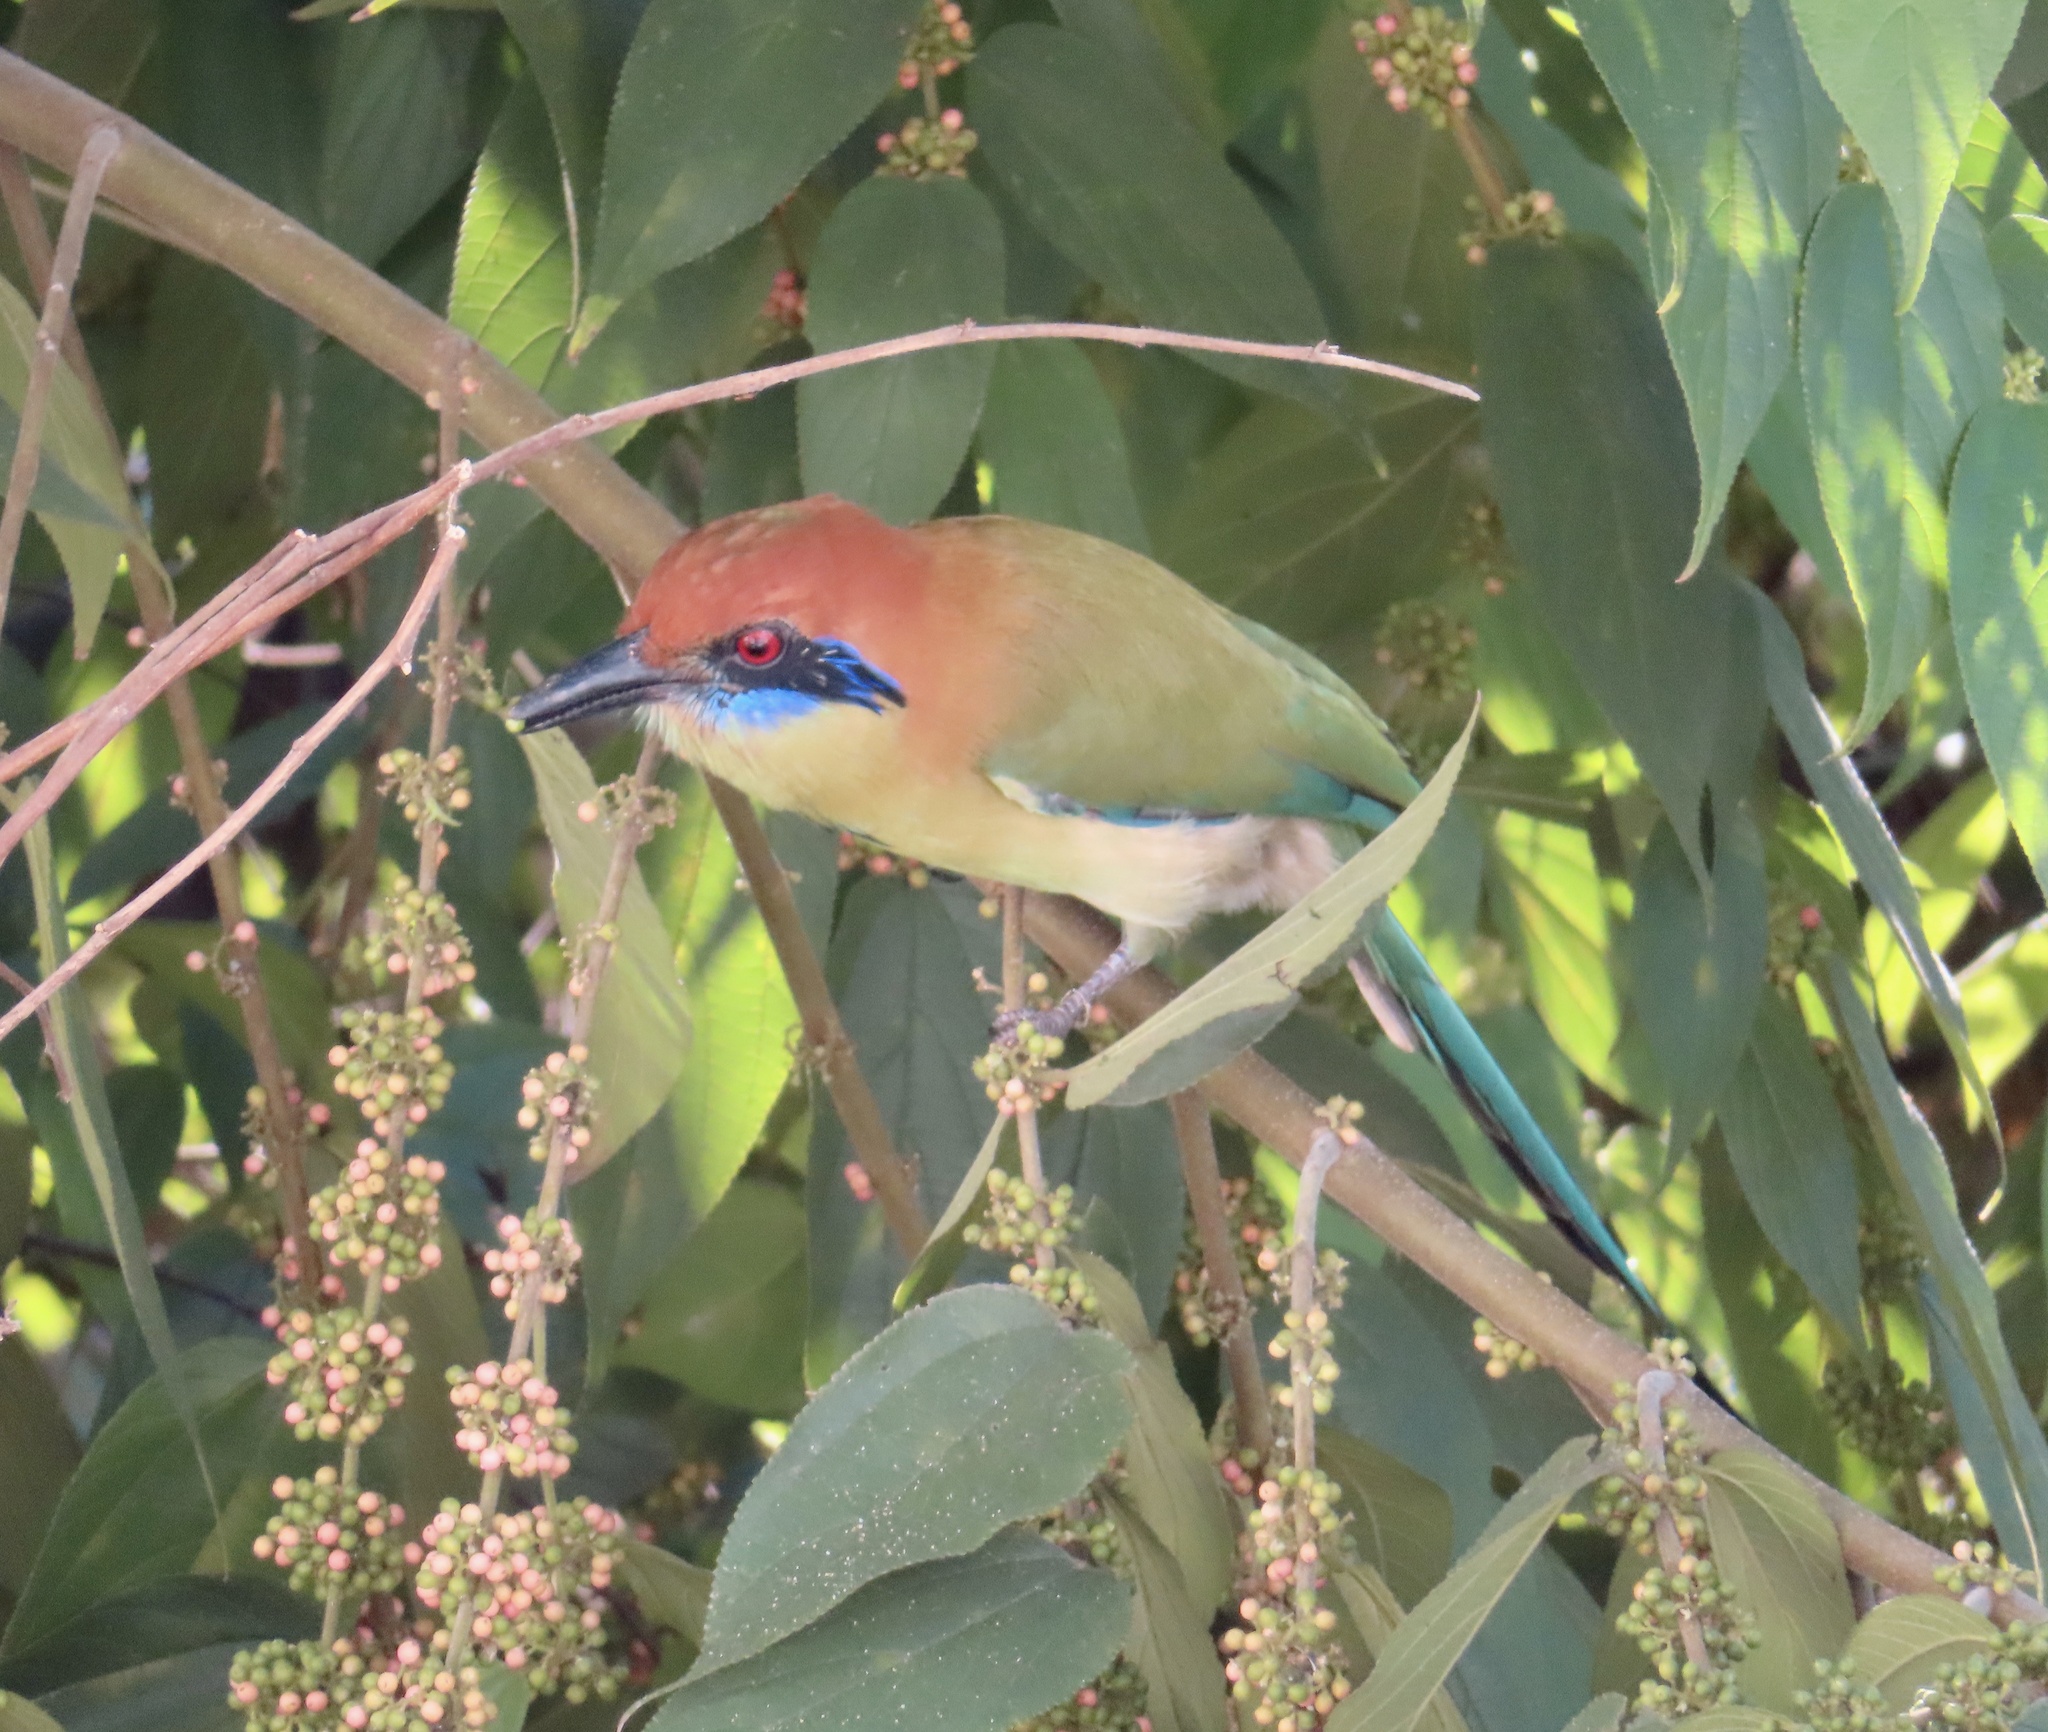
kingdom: Animalia
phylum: Chordata
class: Aves
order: Coraciiformes
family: Momotidae
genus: Momotus
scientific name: Momotus mexicanus
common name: Russet-crowned motmot
